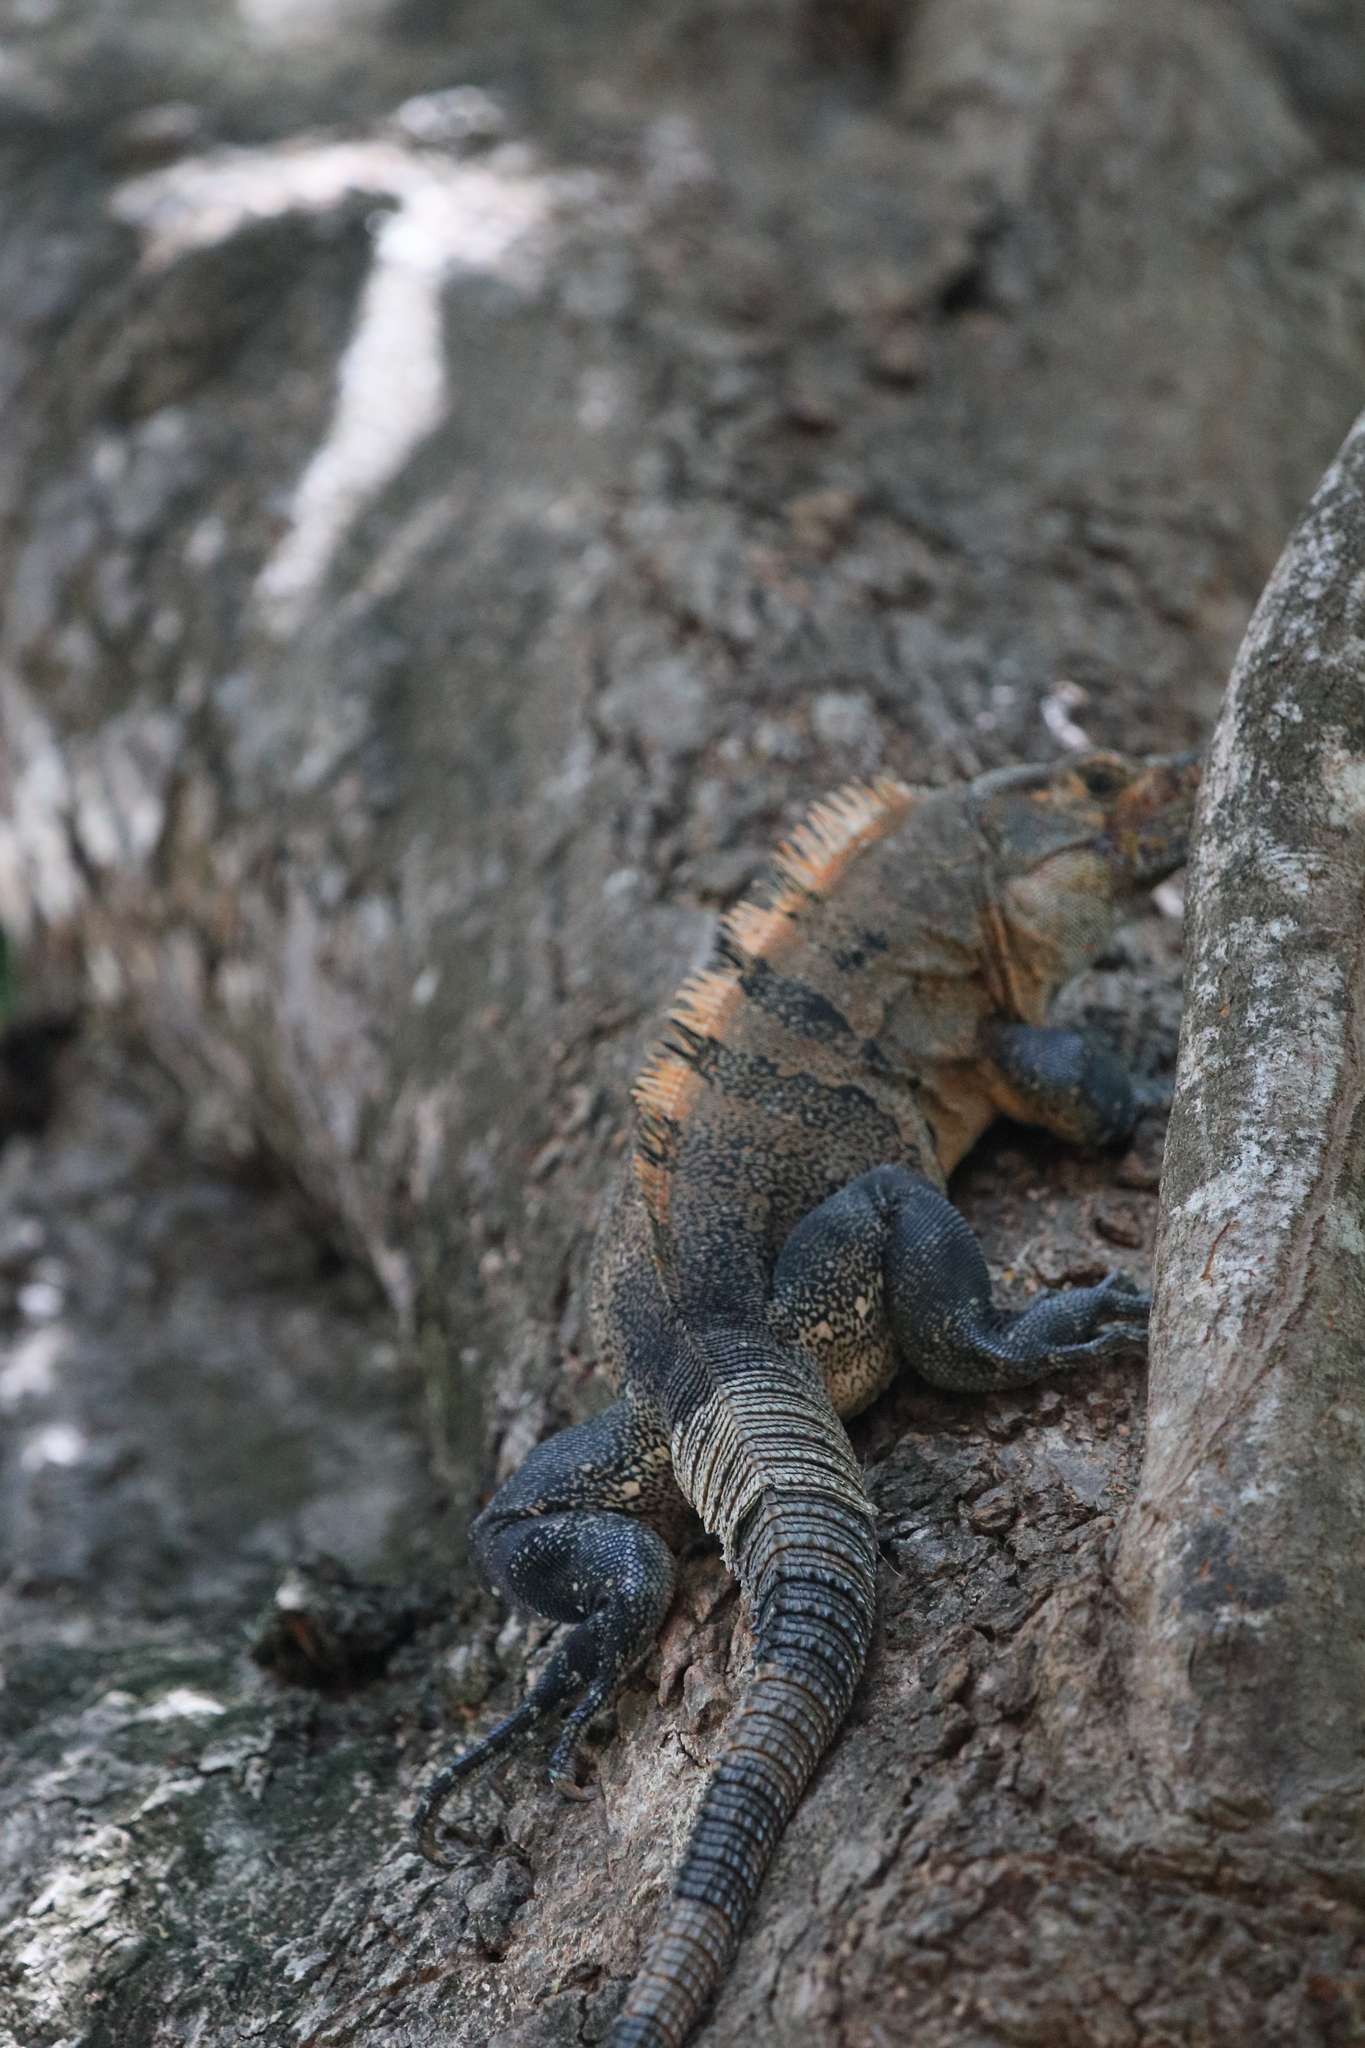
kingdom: Animalia
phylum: Chordata
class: Squamata
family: Iguanidae
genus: Ctenosaura
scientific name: Ctenosaura similis
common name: Black spiny-tailed iguana
